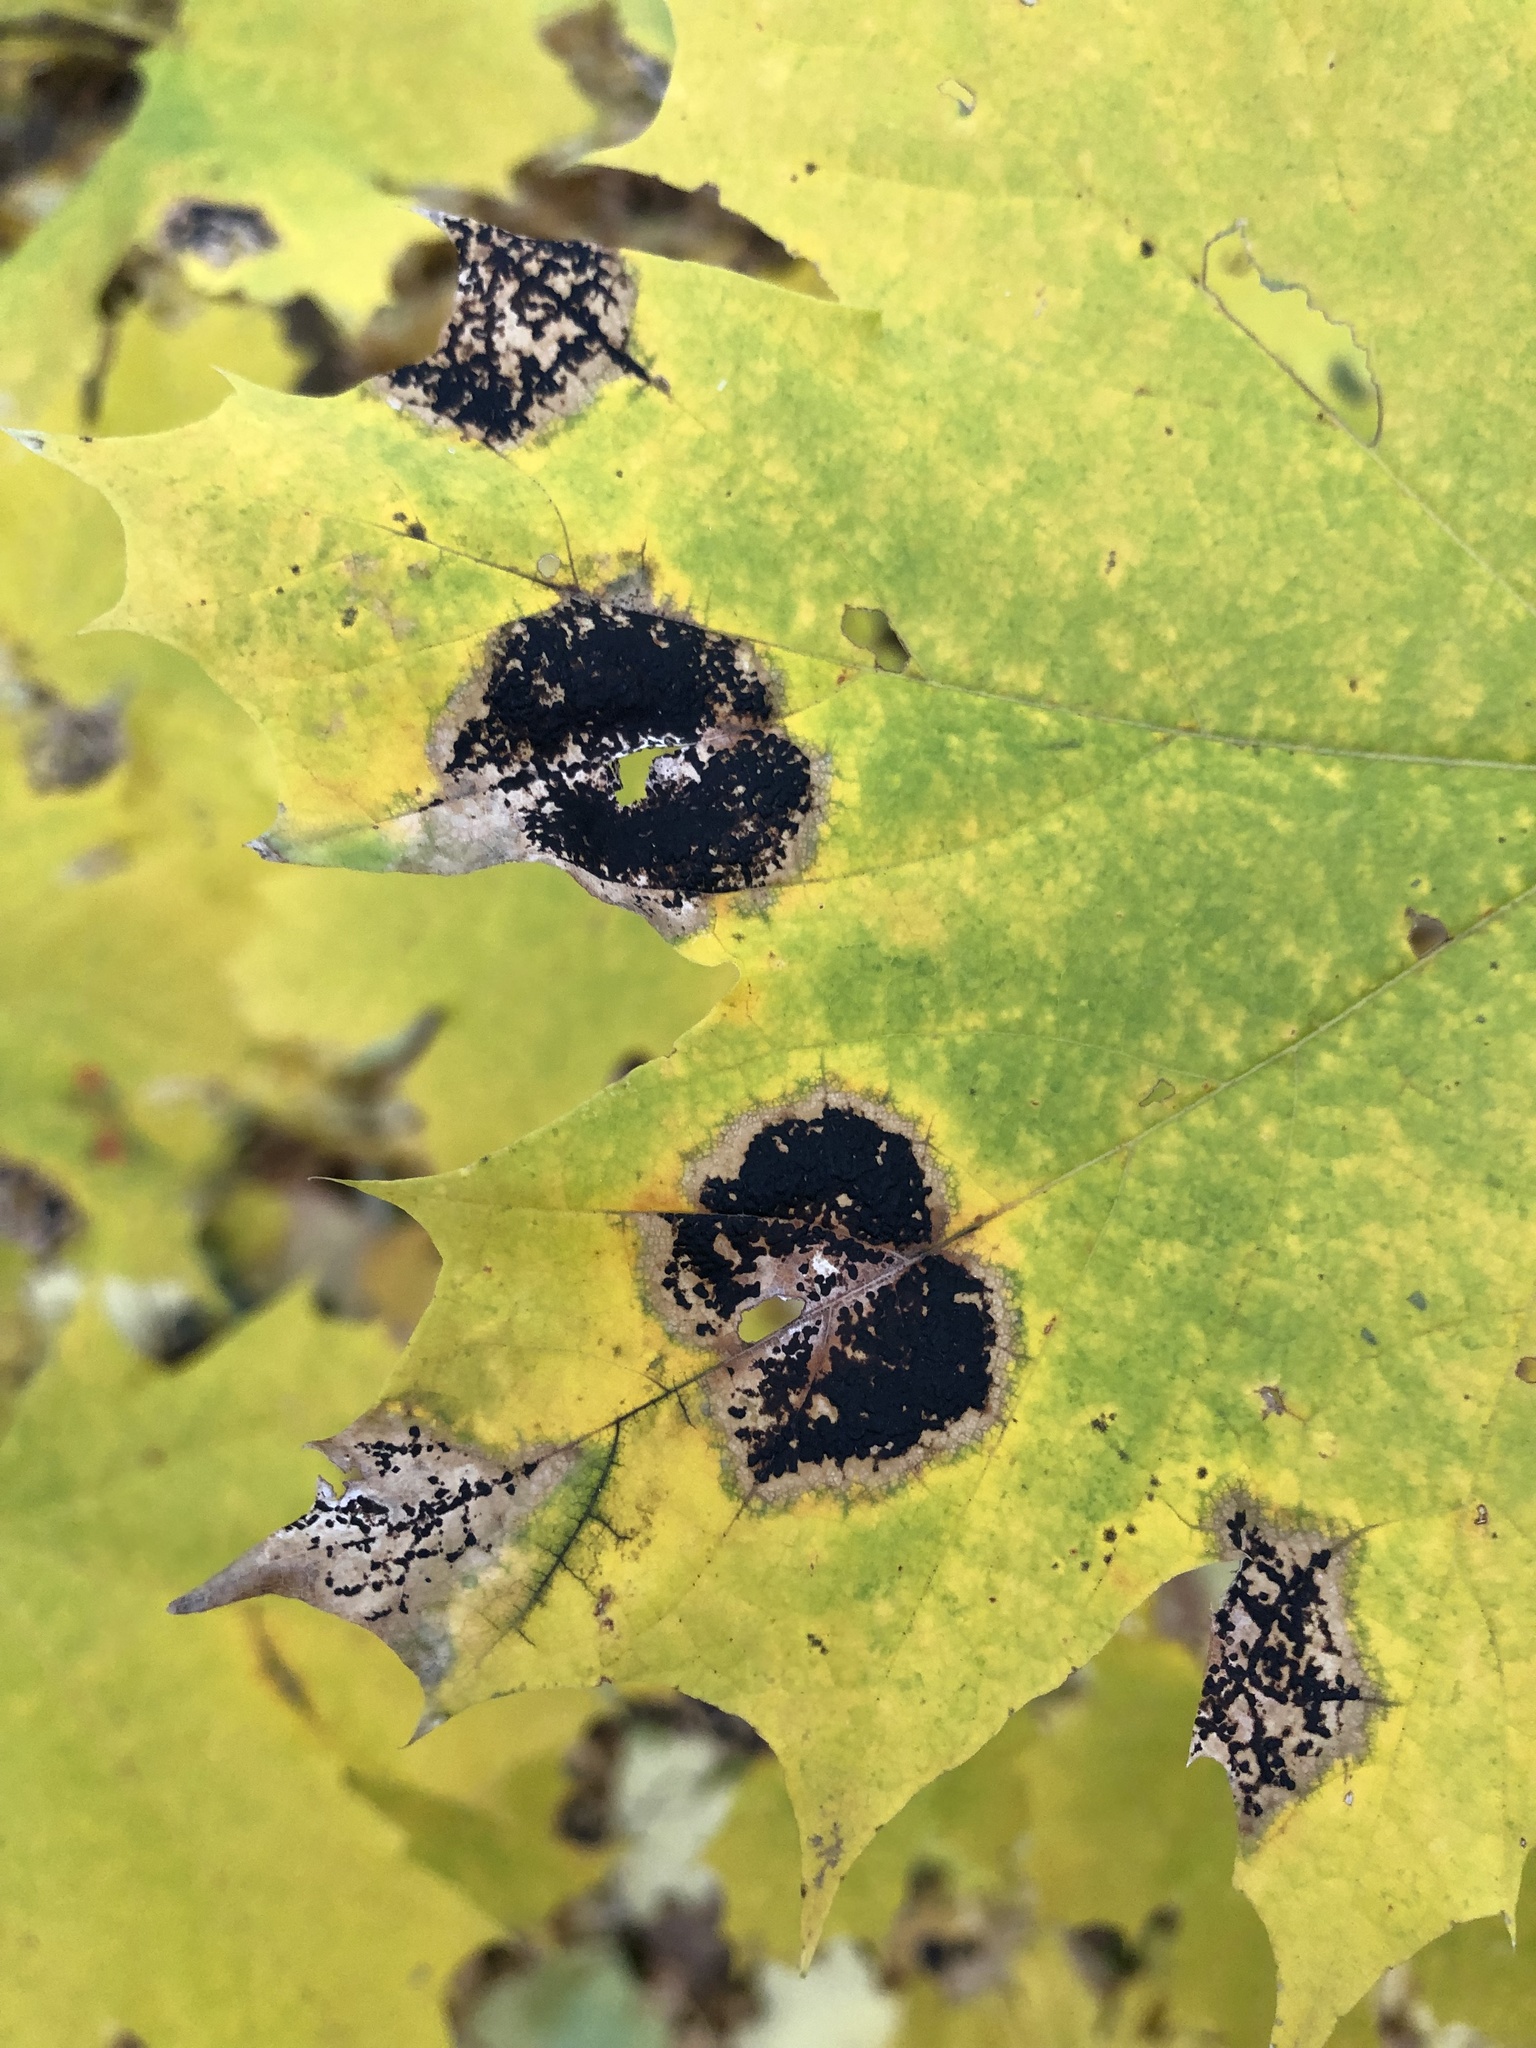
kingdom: Fungi
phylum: Ascomycota
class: Leotiomycetes
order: Rhytismatales
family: Rhytismataceae
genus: Rhytisma
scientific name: Rhytisma acerinum
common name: European tar spot
